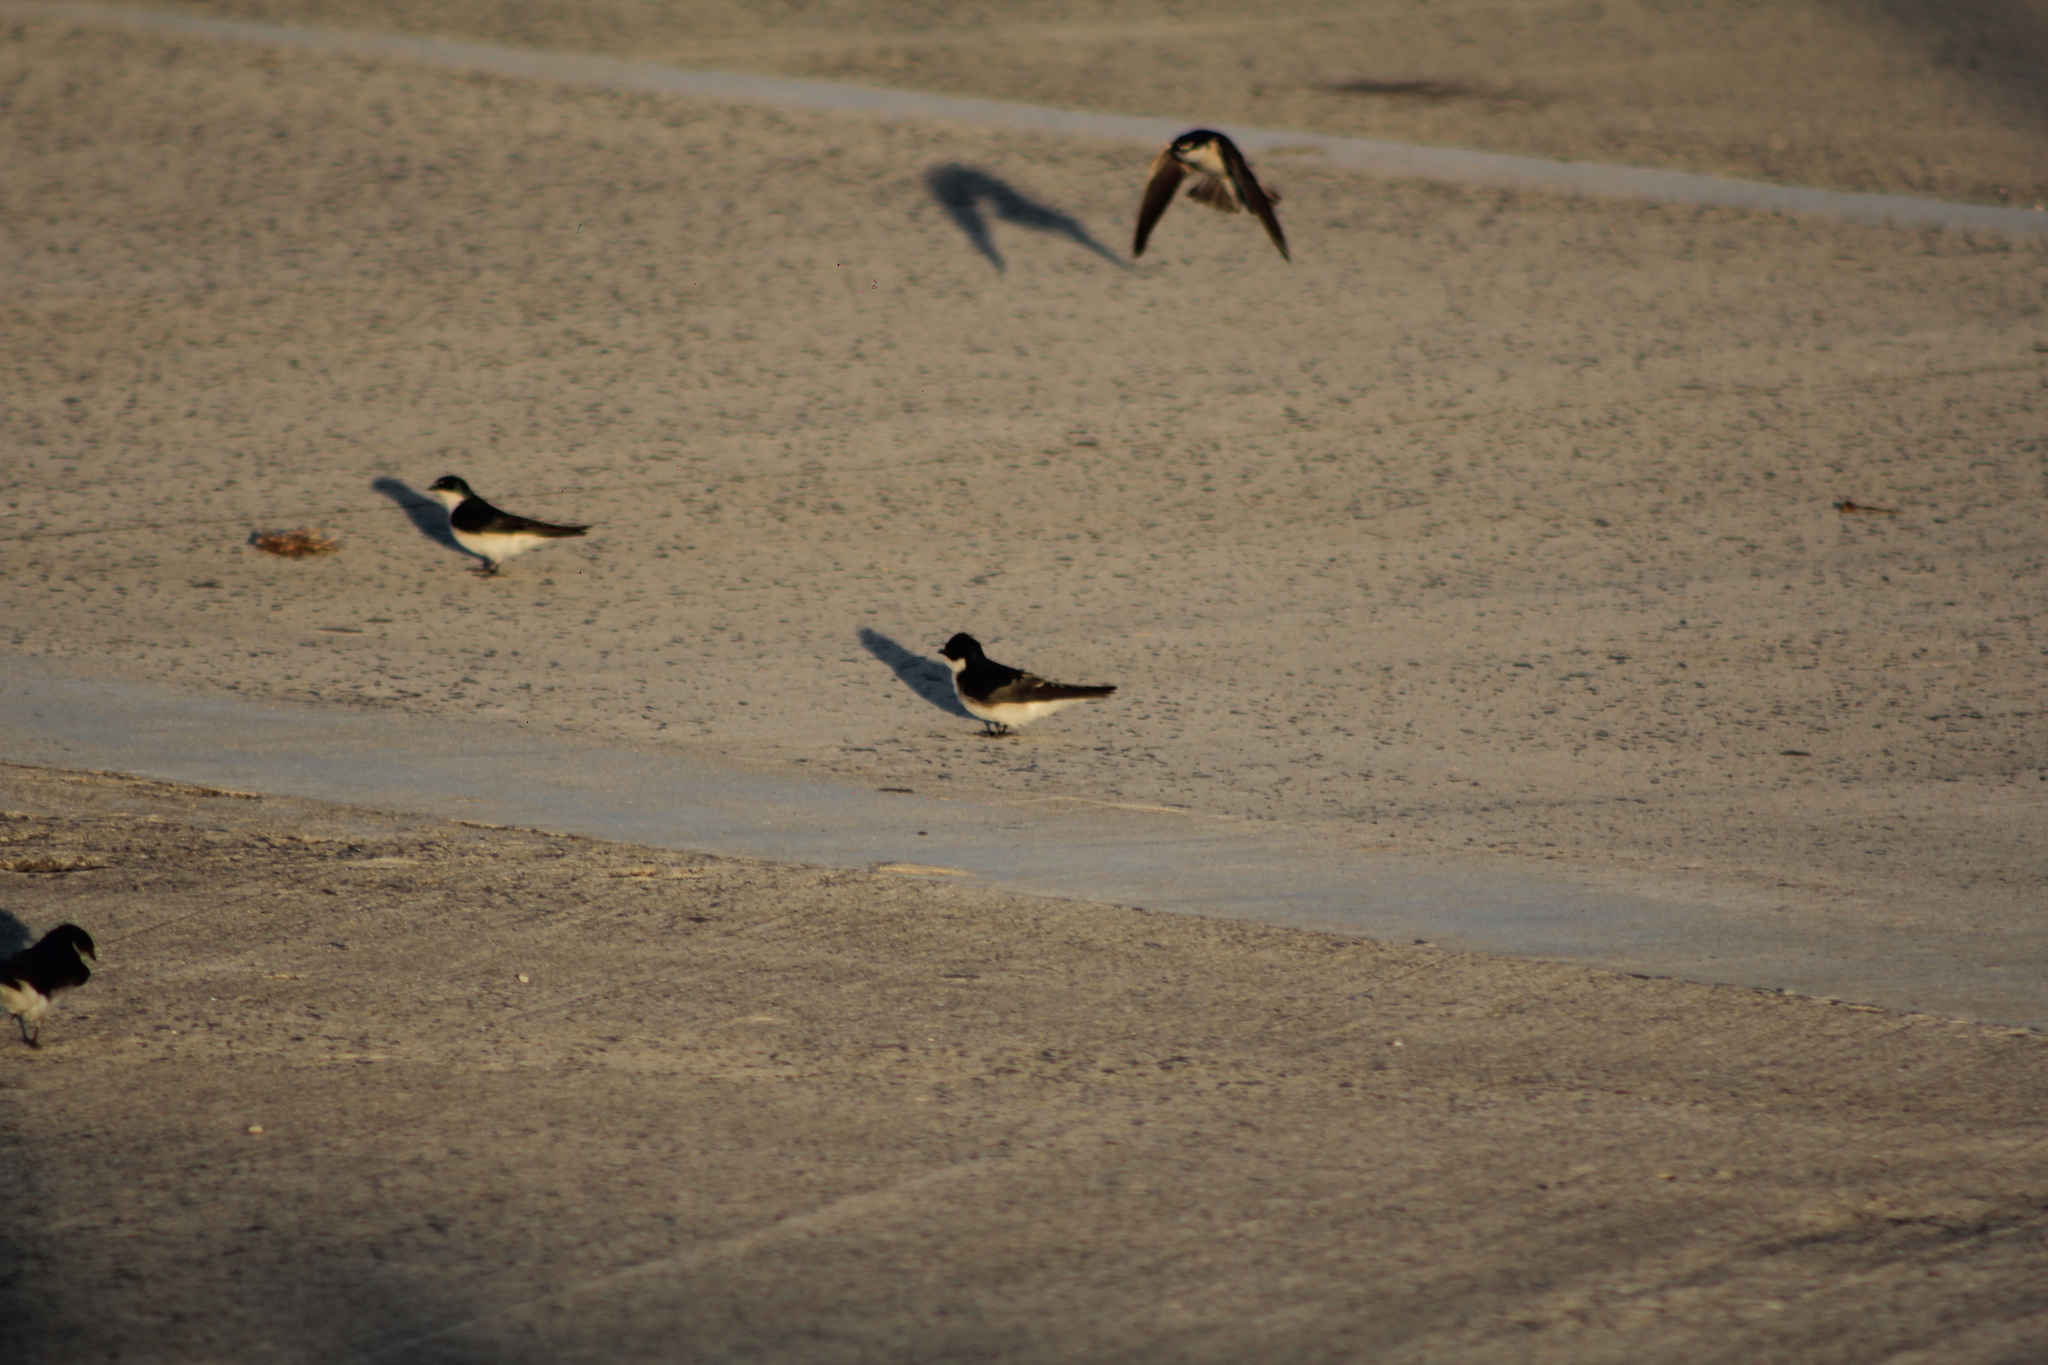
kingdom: Animalia
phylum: Chordata
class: Aves
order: Passeriformes
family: Hirundinidae
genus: Tachycineta
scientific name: Tachycineta leucorrhoa
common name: White-rumped swallow
